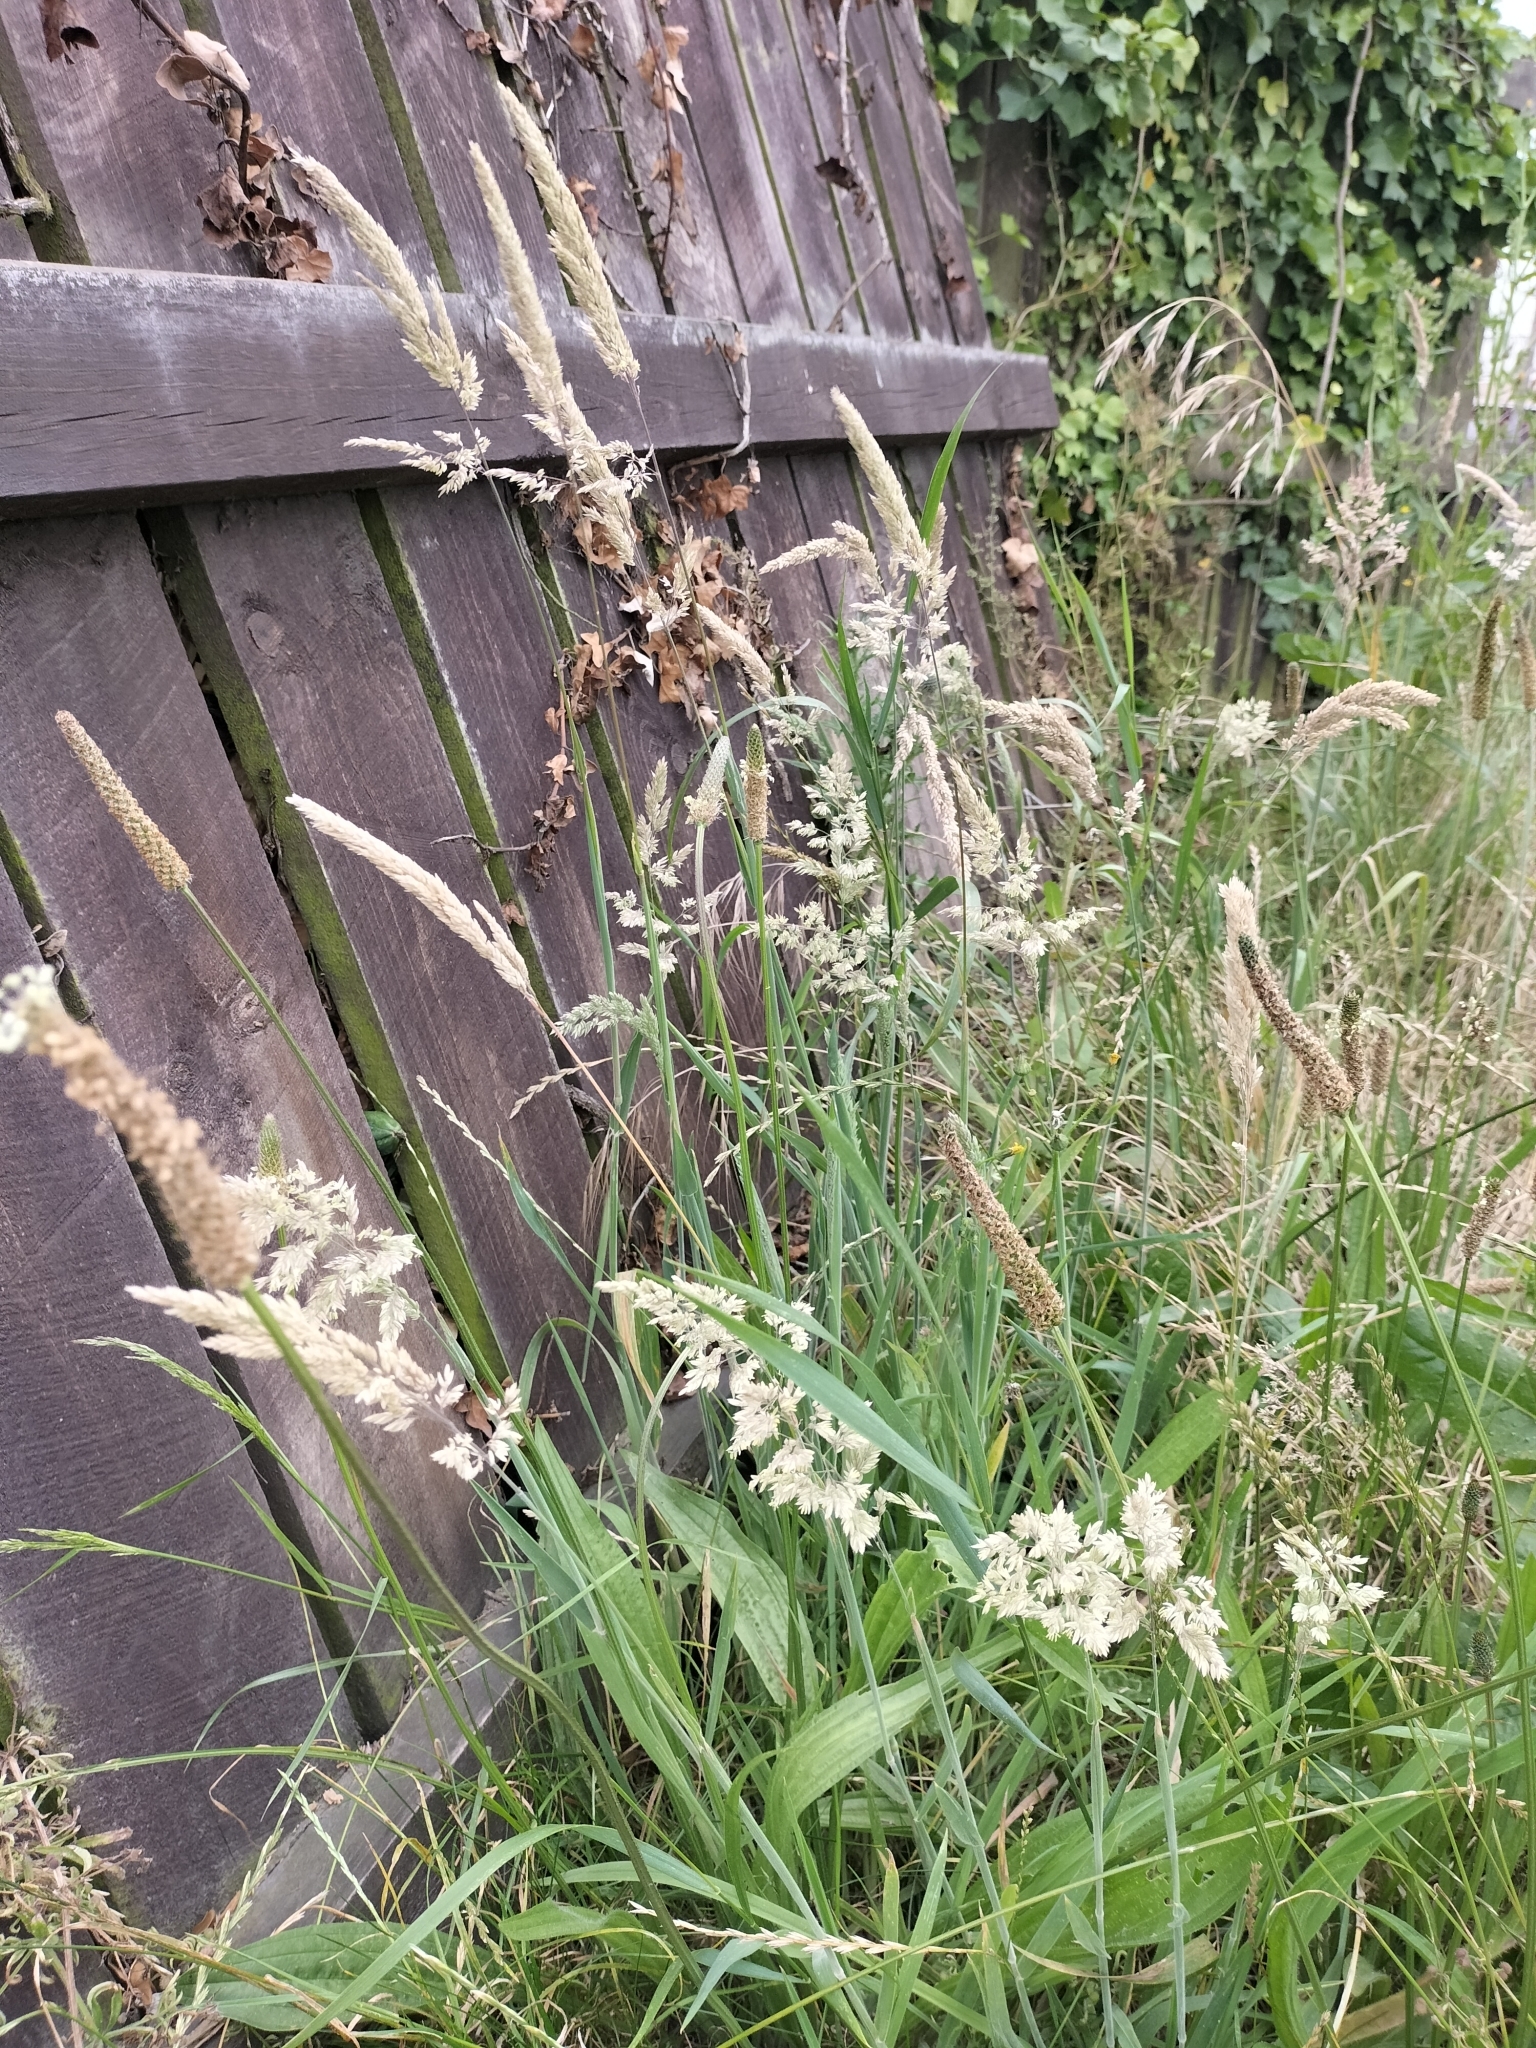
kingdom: Plantae
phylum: Tracheophyta
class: Liliopsida
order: Poales
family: Poaceae
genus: Holcus
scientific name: Holcus lanatus
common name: Yorkshire-fog
